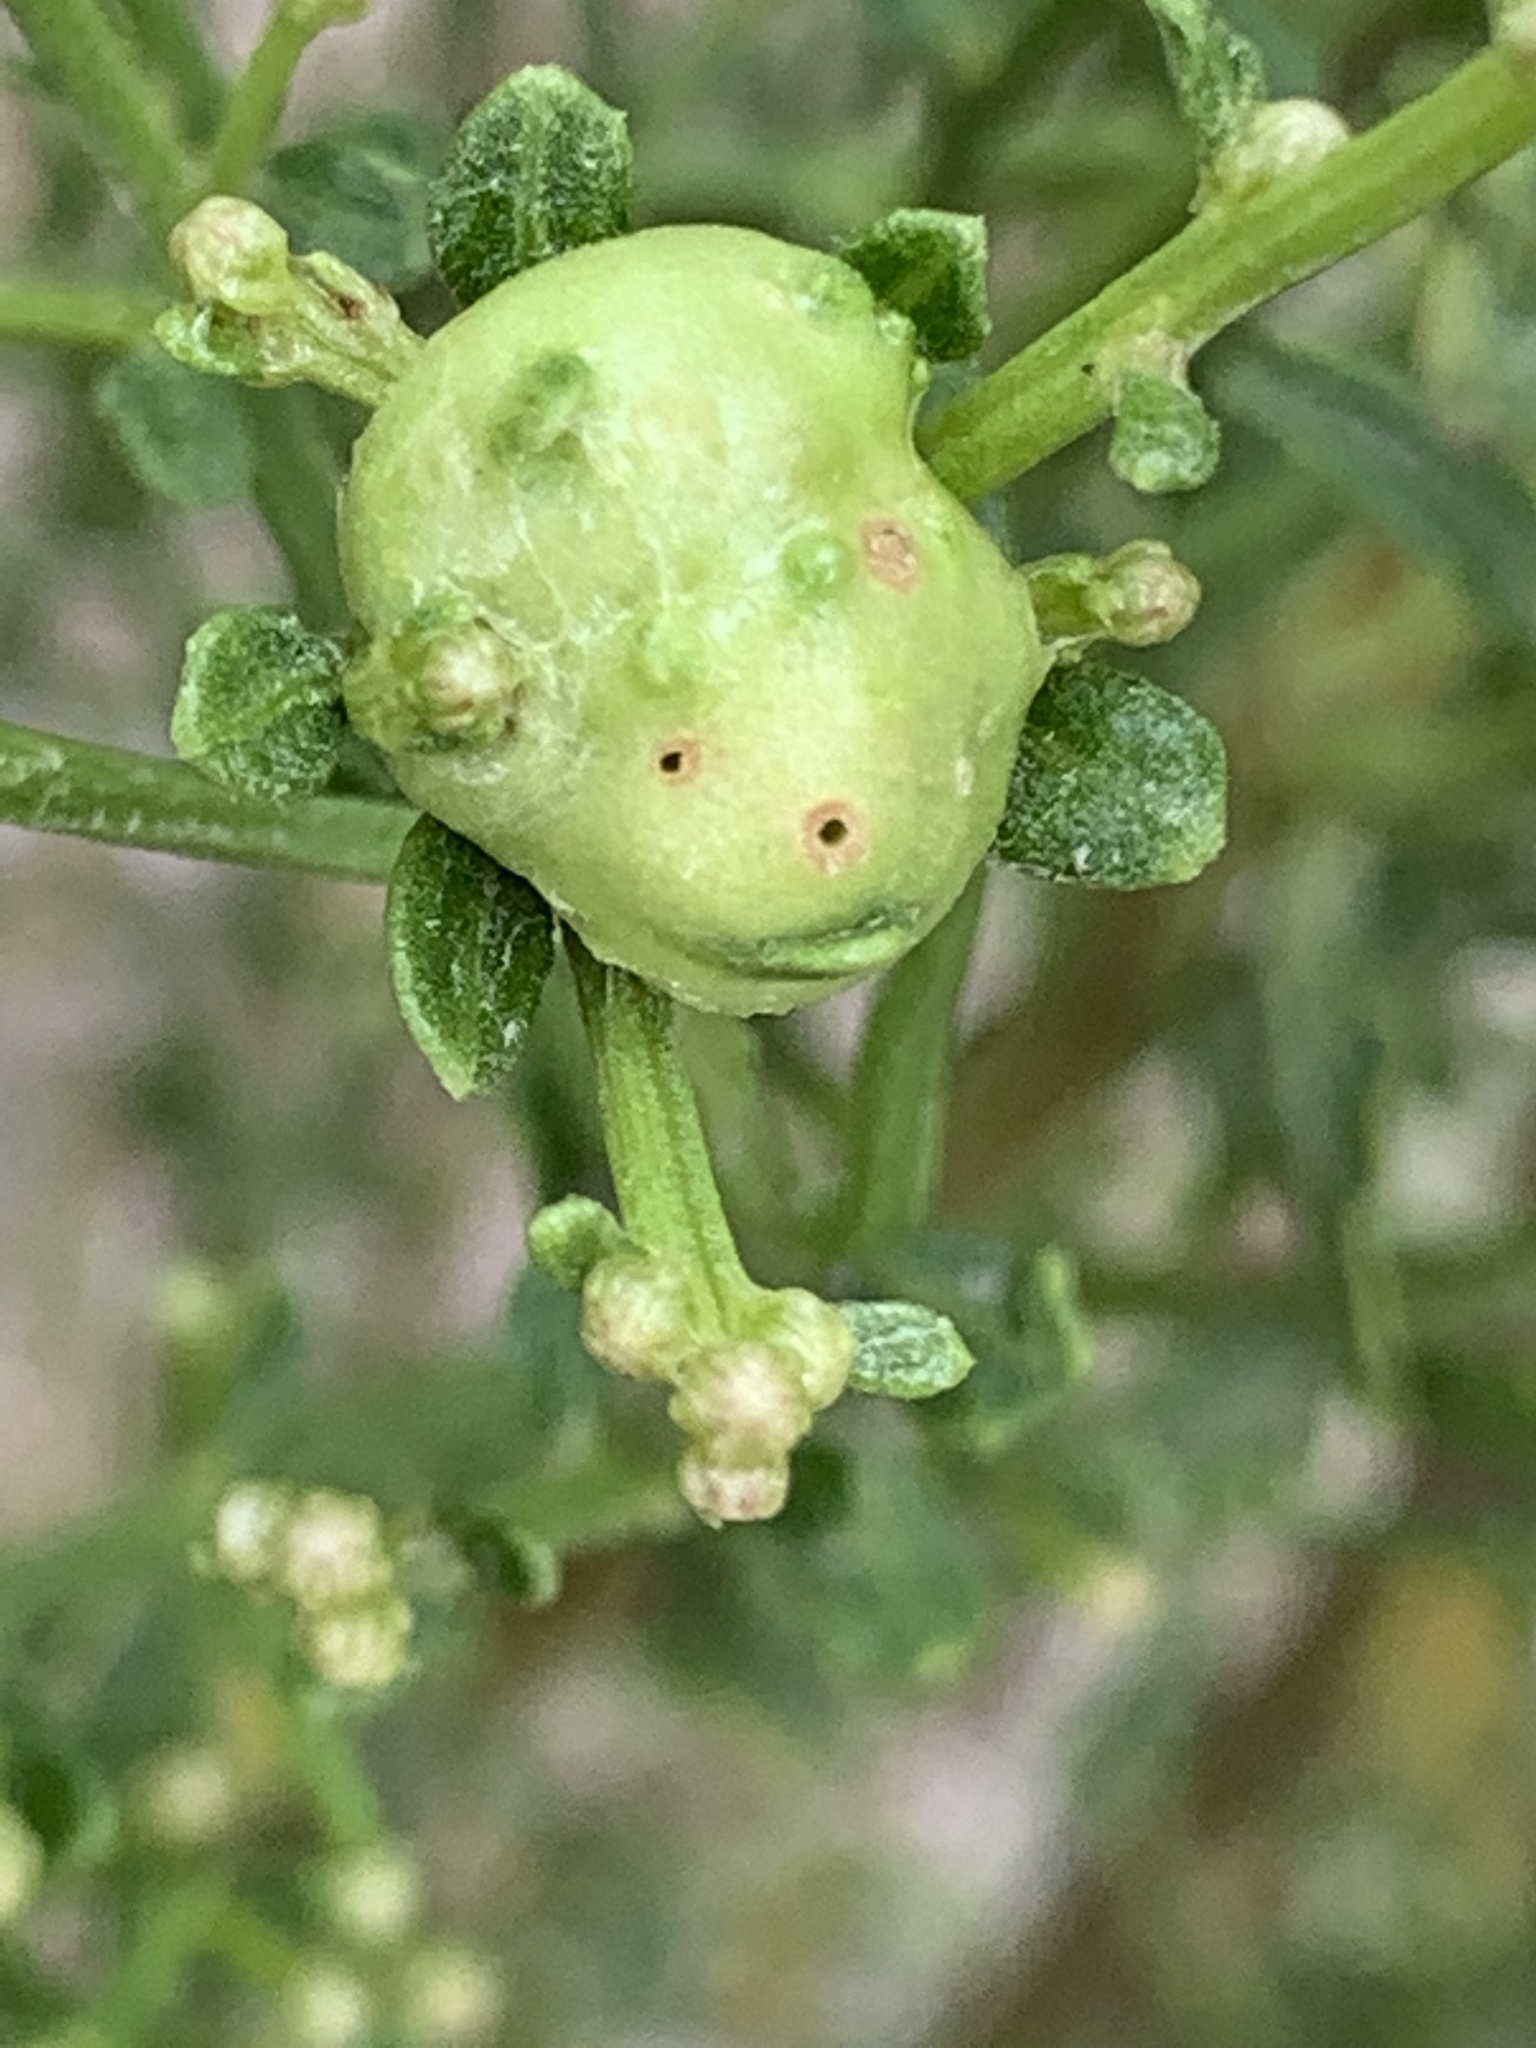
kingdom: Animalia
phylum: Arthropoda
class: Insecta
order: Diptera
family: Cecidomyiidae
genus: Rhopalomyia
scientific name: Rhopalomyia californica
